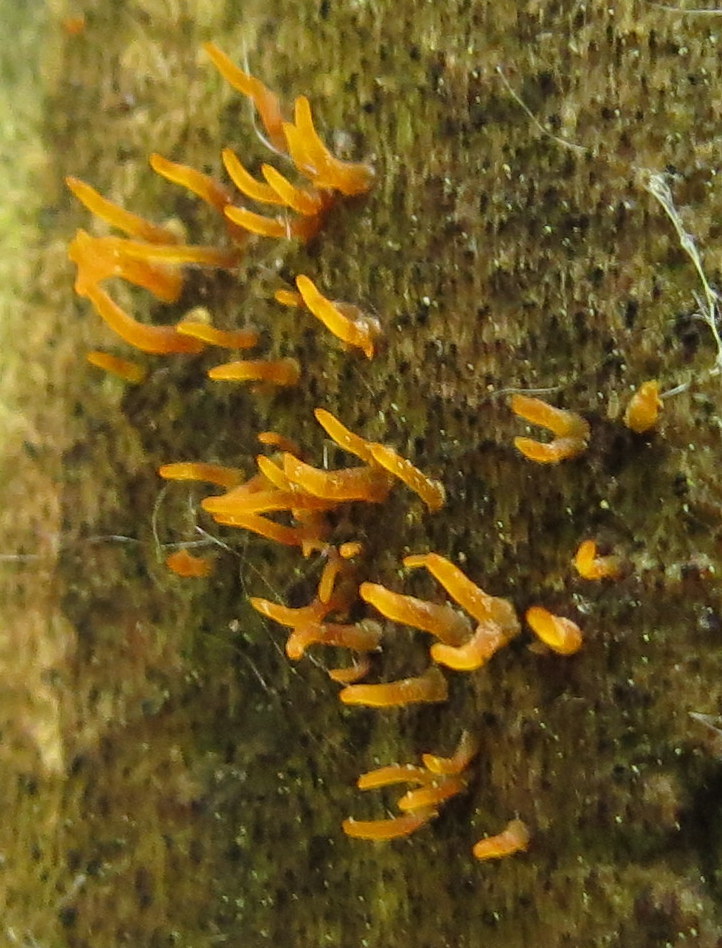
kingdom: Fungi
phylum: Basidiomycota
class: Dacrymycetes
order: Dacrymycetales
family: Dacrymycetaceae
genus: Calocera
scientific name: Calocera cornea
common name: Small stagshorn
